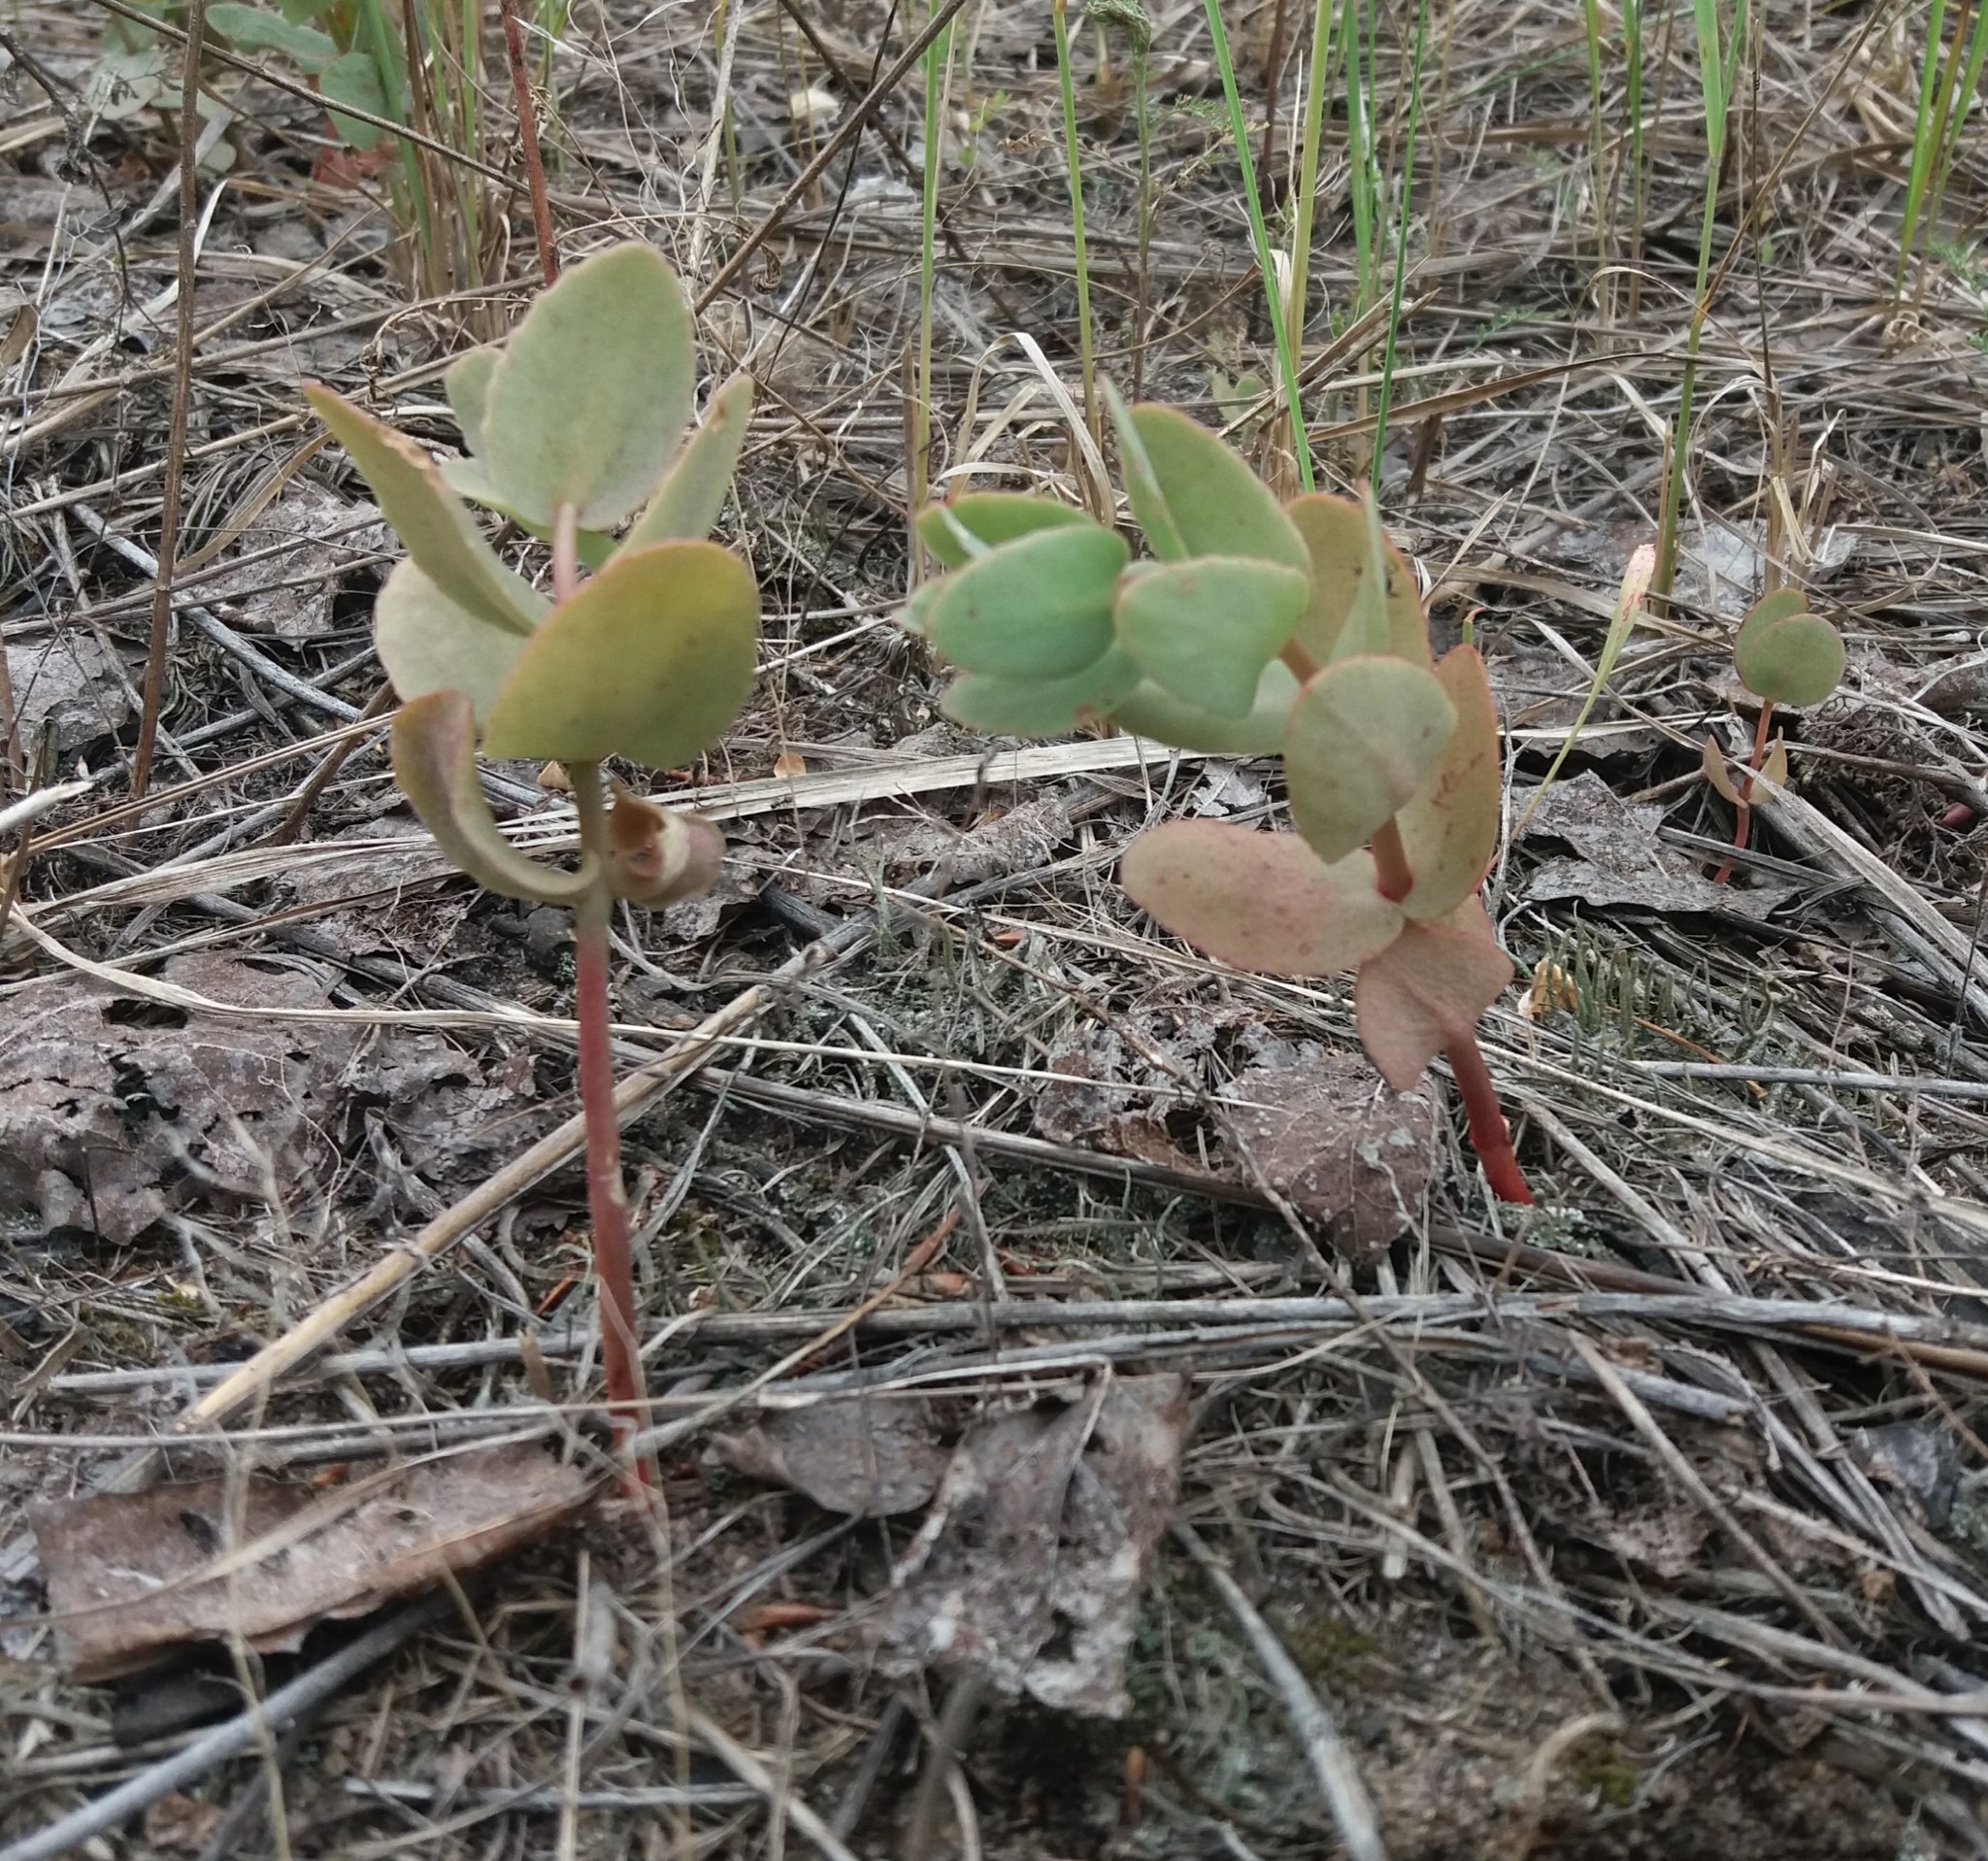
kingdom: Plantae
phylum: Tracheophyta
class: Magnoliopsida
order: Saxifragales
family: Crassulaceae
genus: Hylotelephium
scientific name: Hylotelephium maximum
